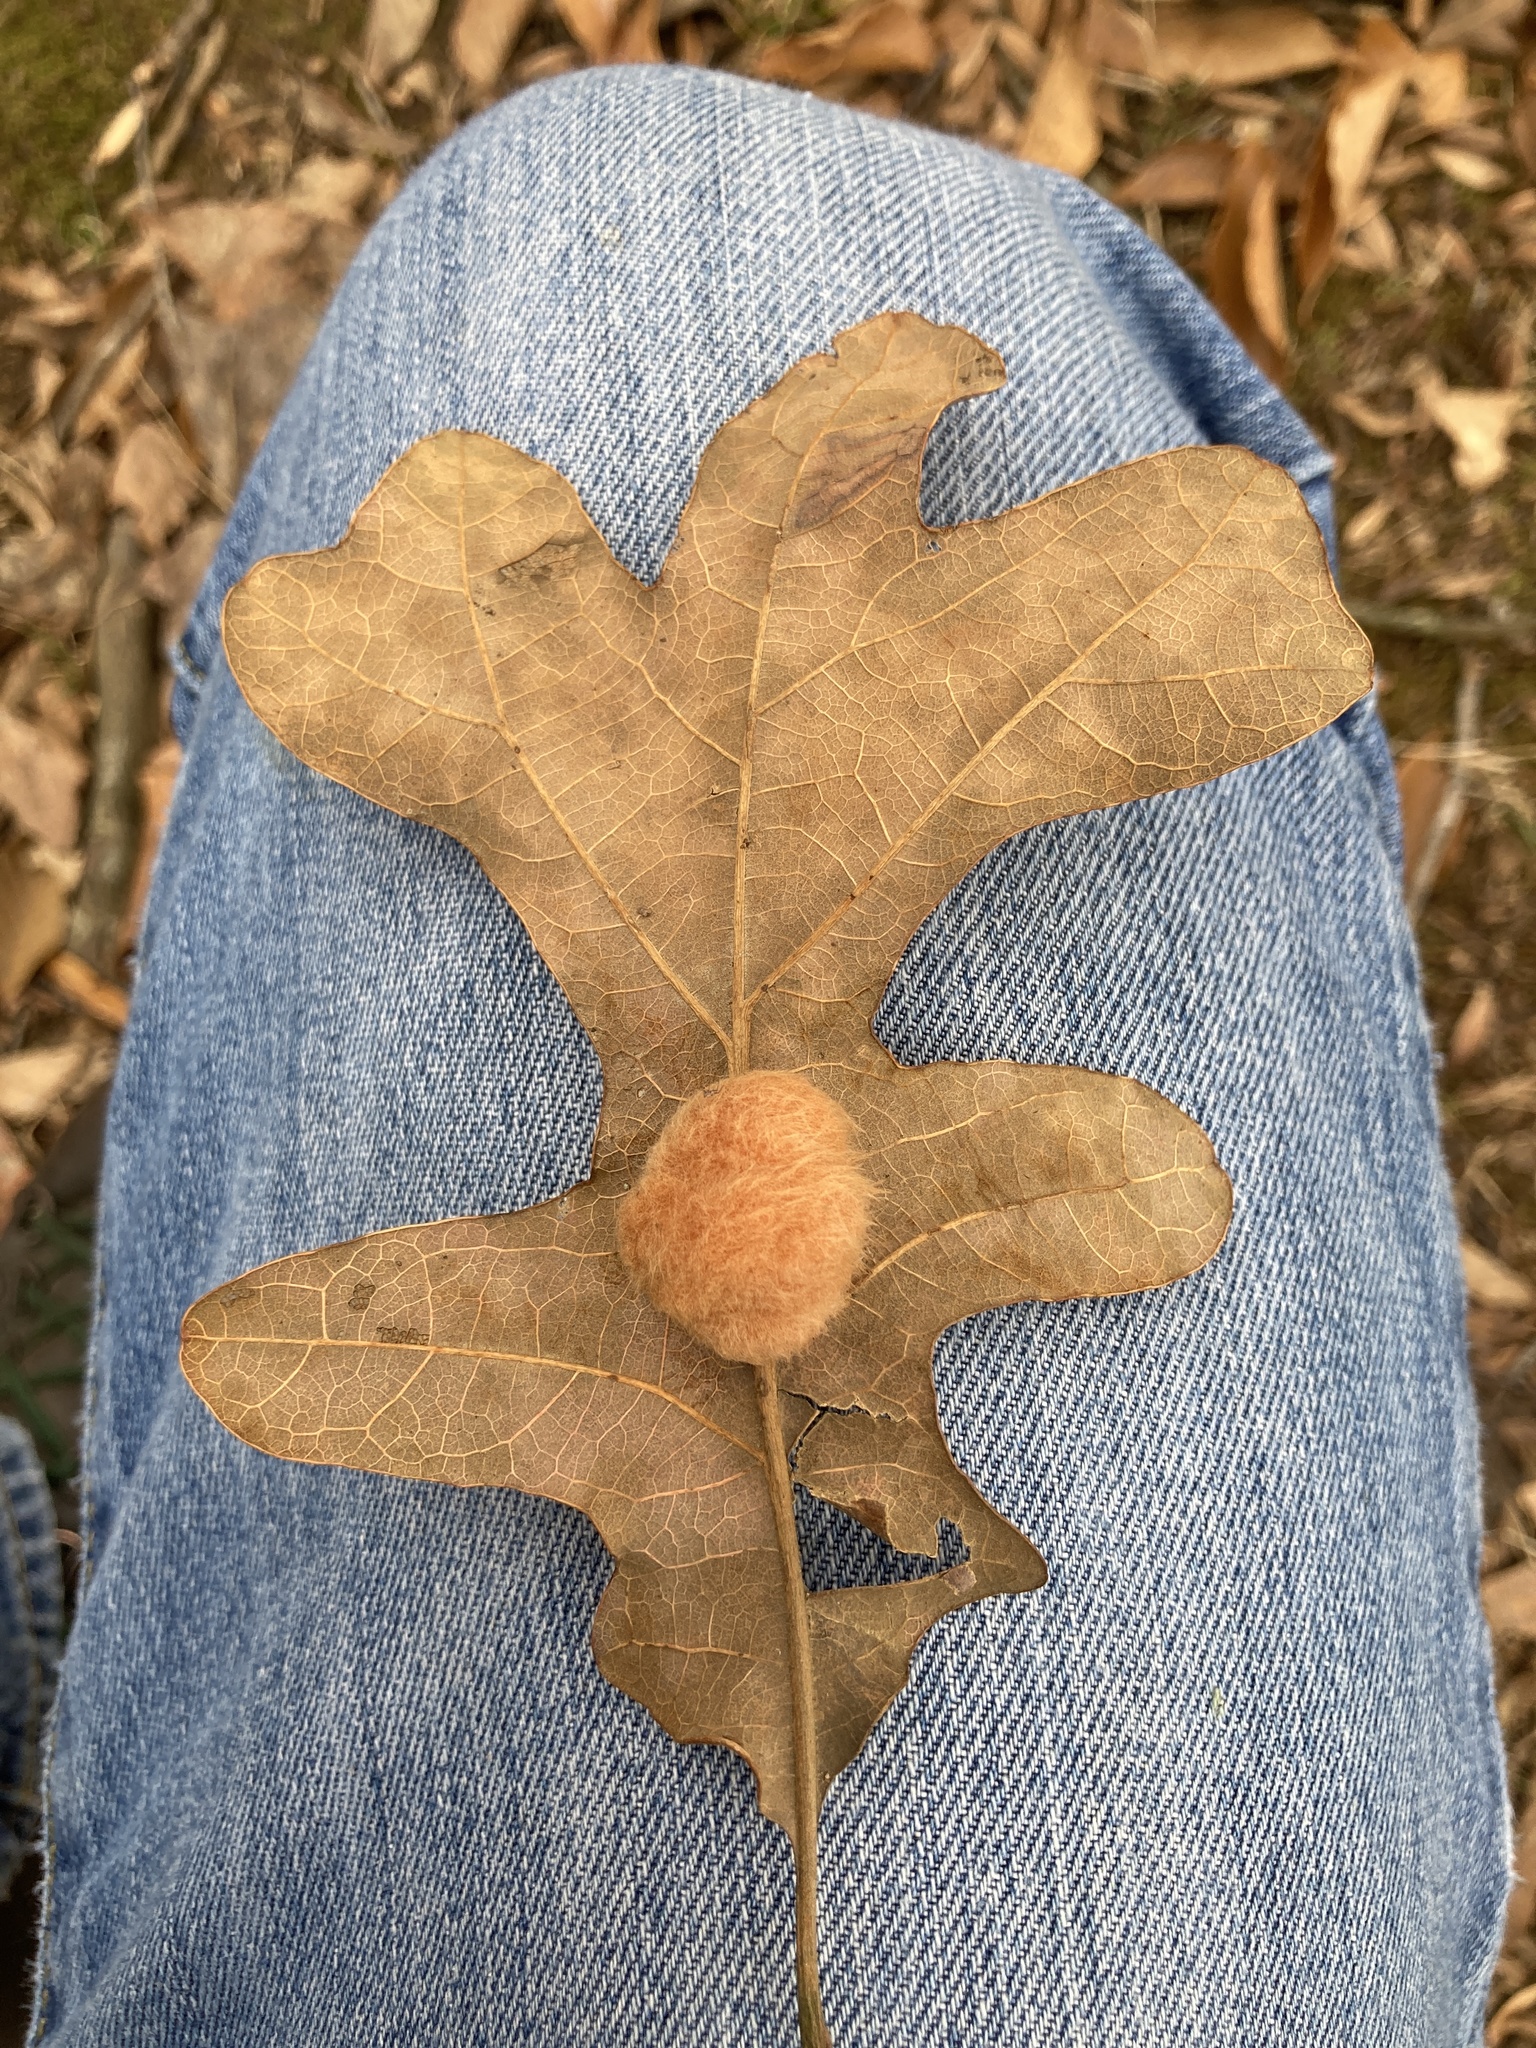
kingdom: Animalia
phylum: Arthropoda
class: Insecta
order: Hymenoptera
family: Cynipidae
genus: Andricus
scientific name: Andricus Druon pattoni
